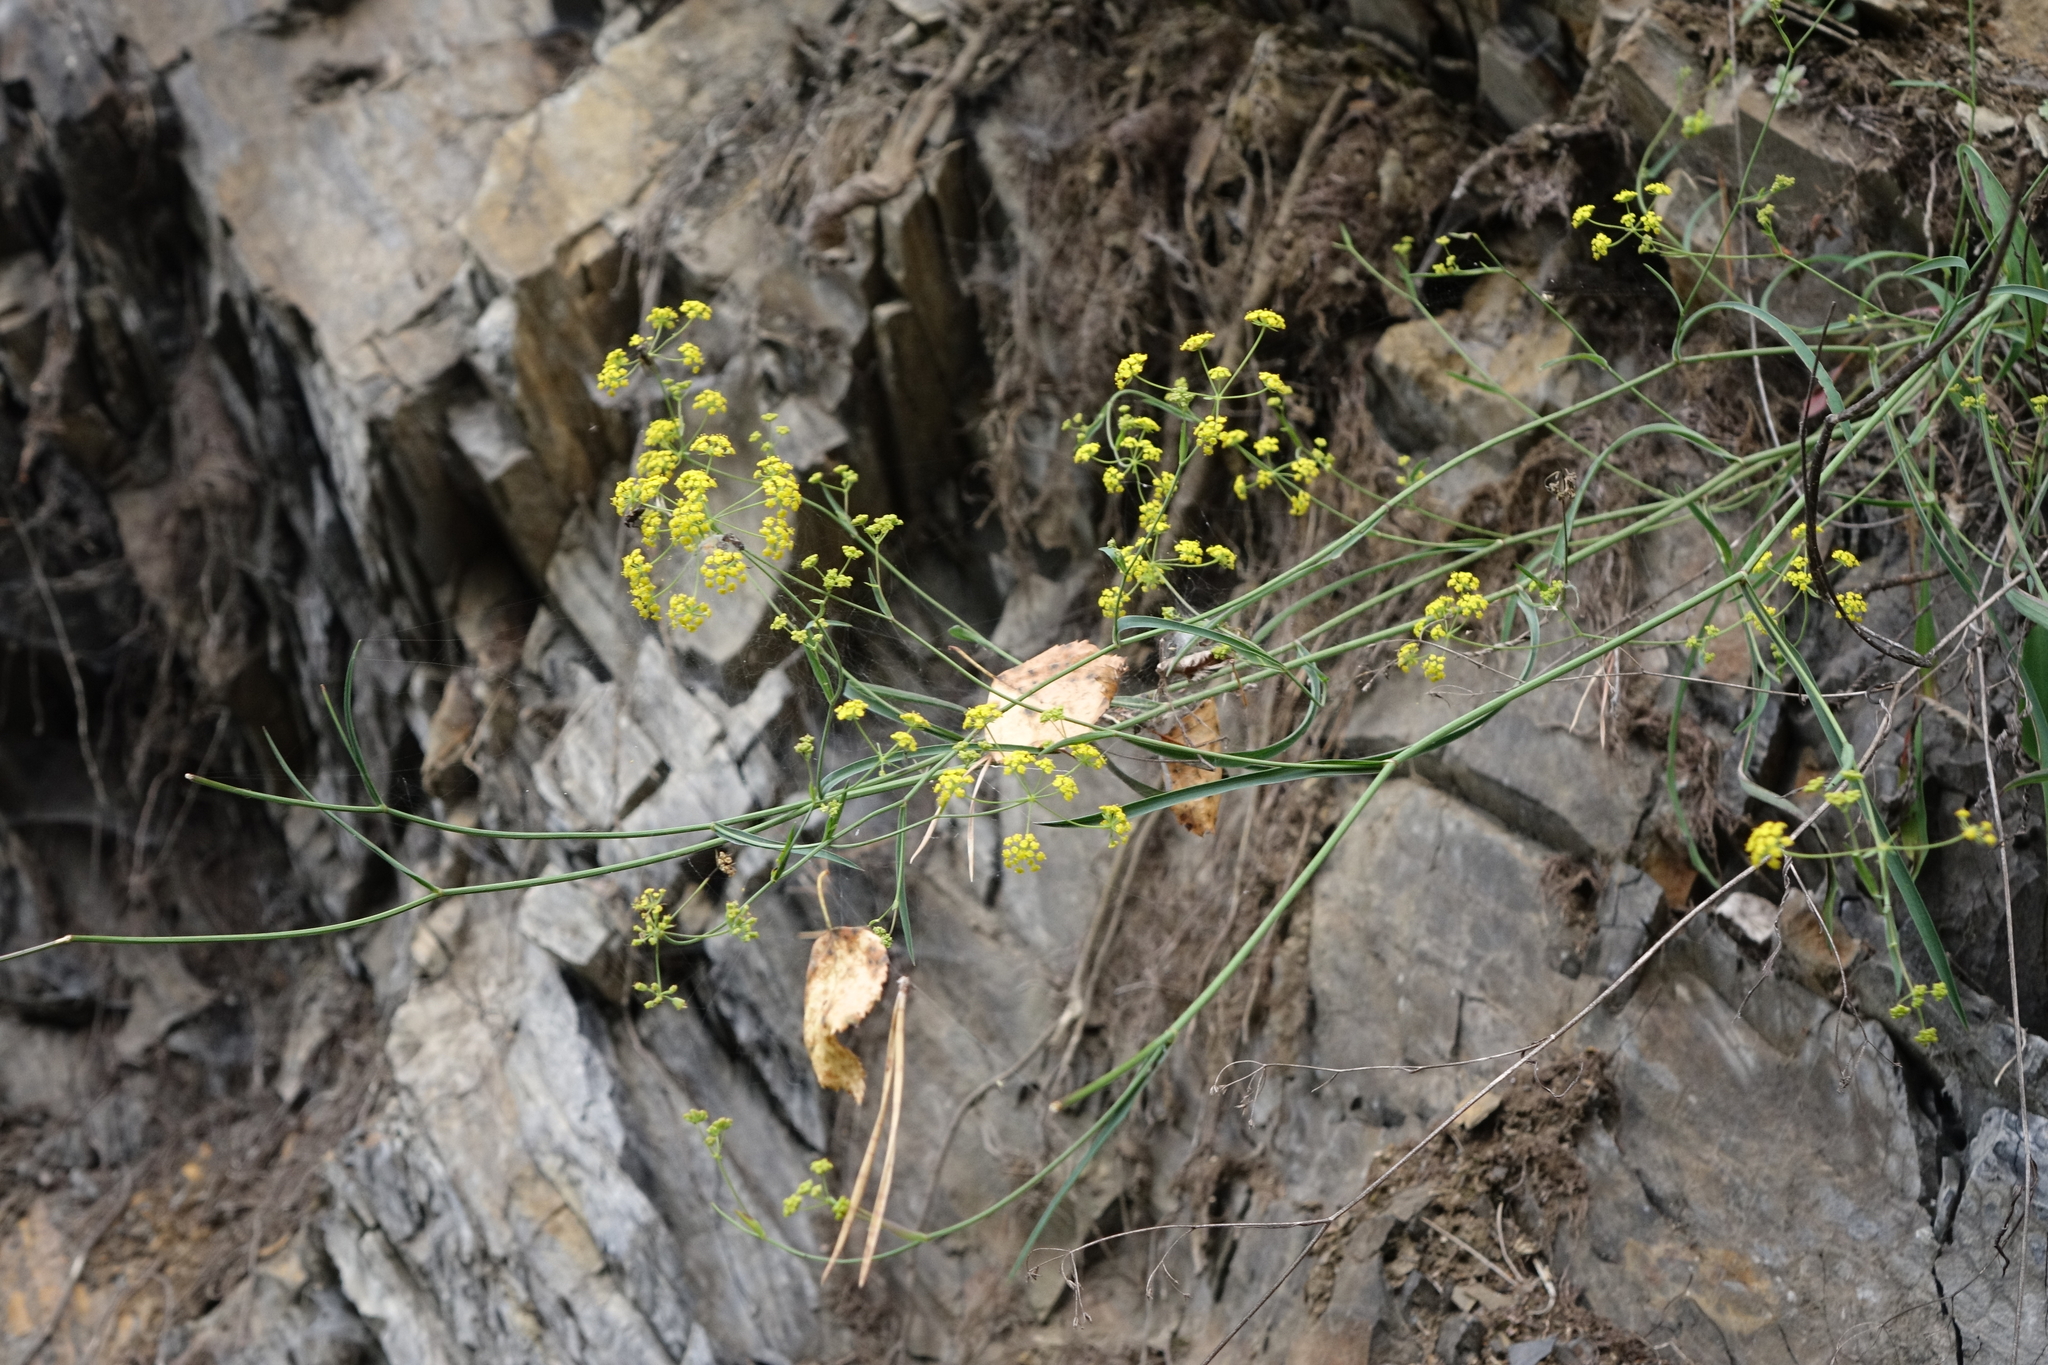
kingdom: Plantae
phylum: Tracheophyta
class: Magnoliopsida
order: Apiales
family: Apiaceae
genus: Bupleurum
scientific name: Bupleurum polyphyllum
